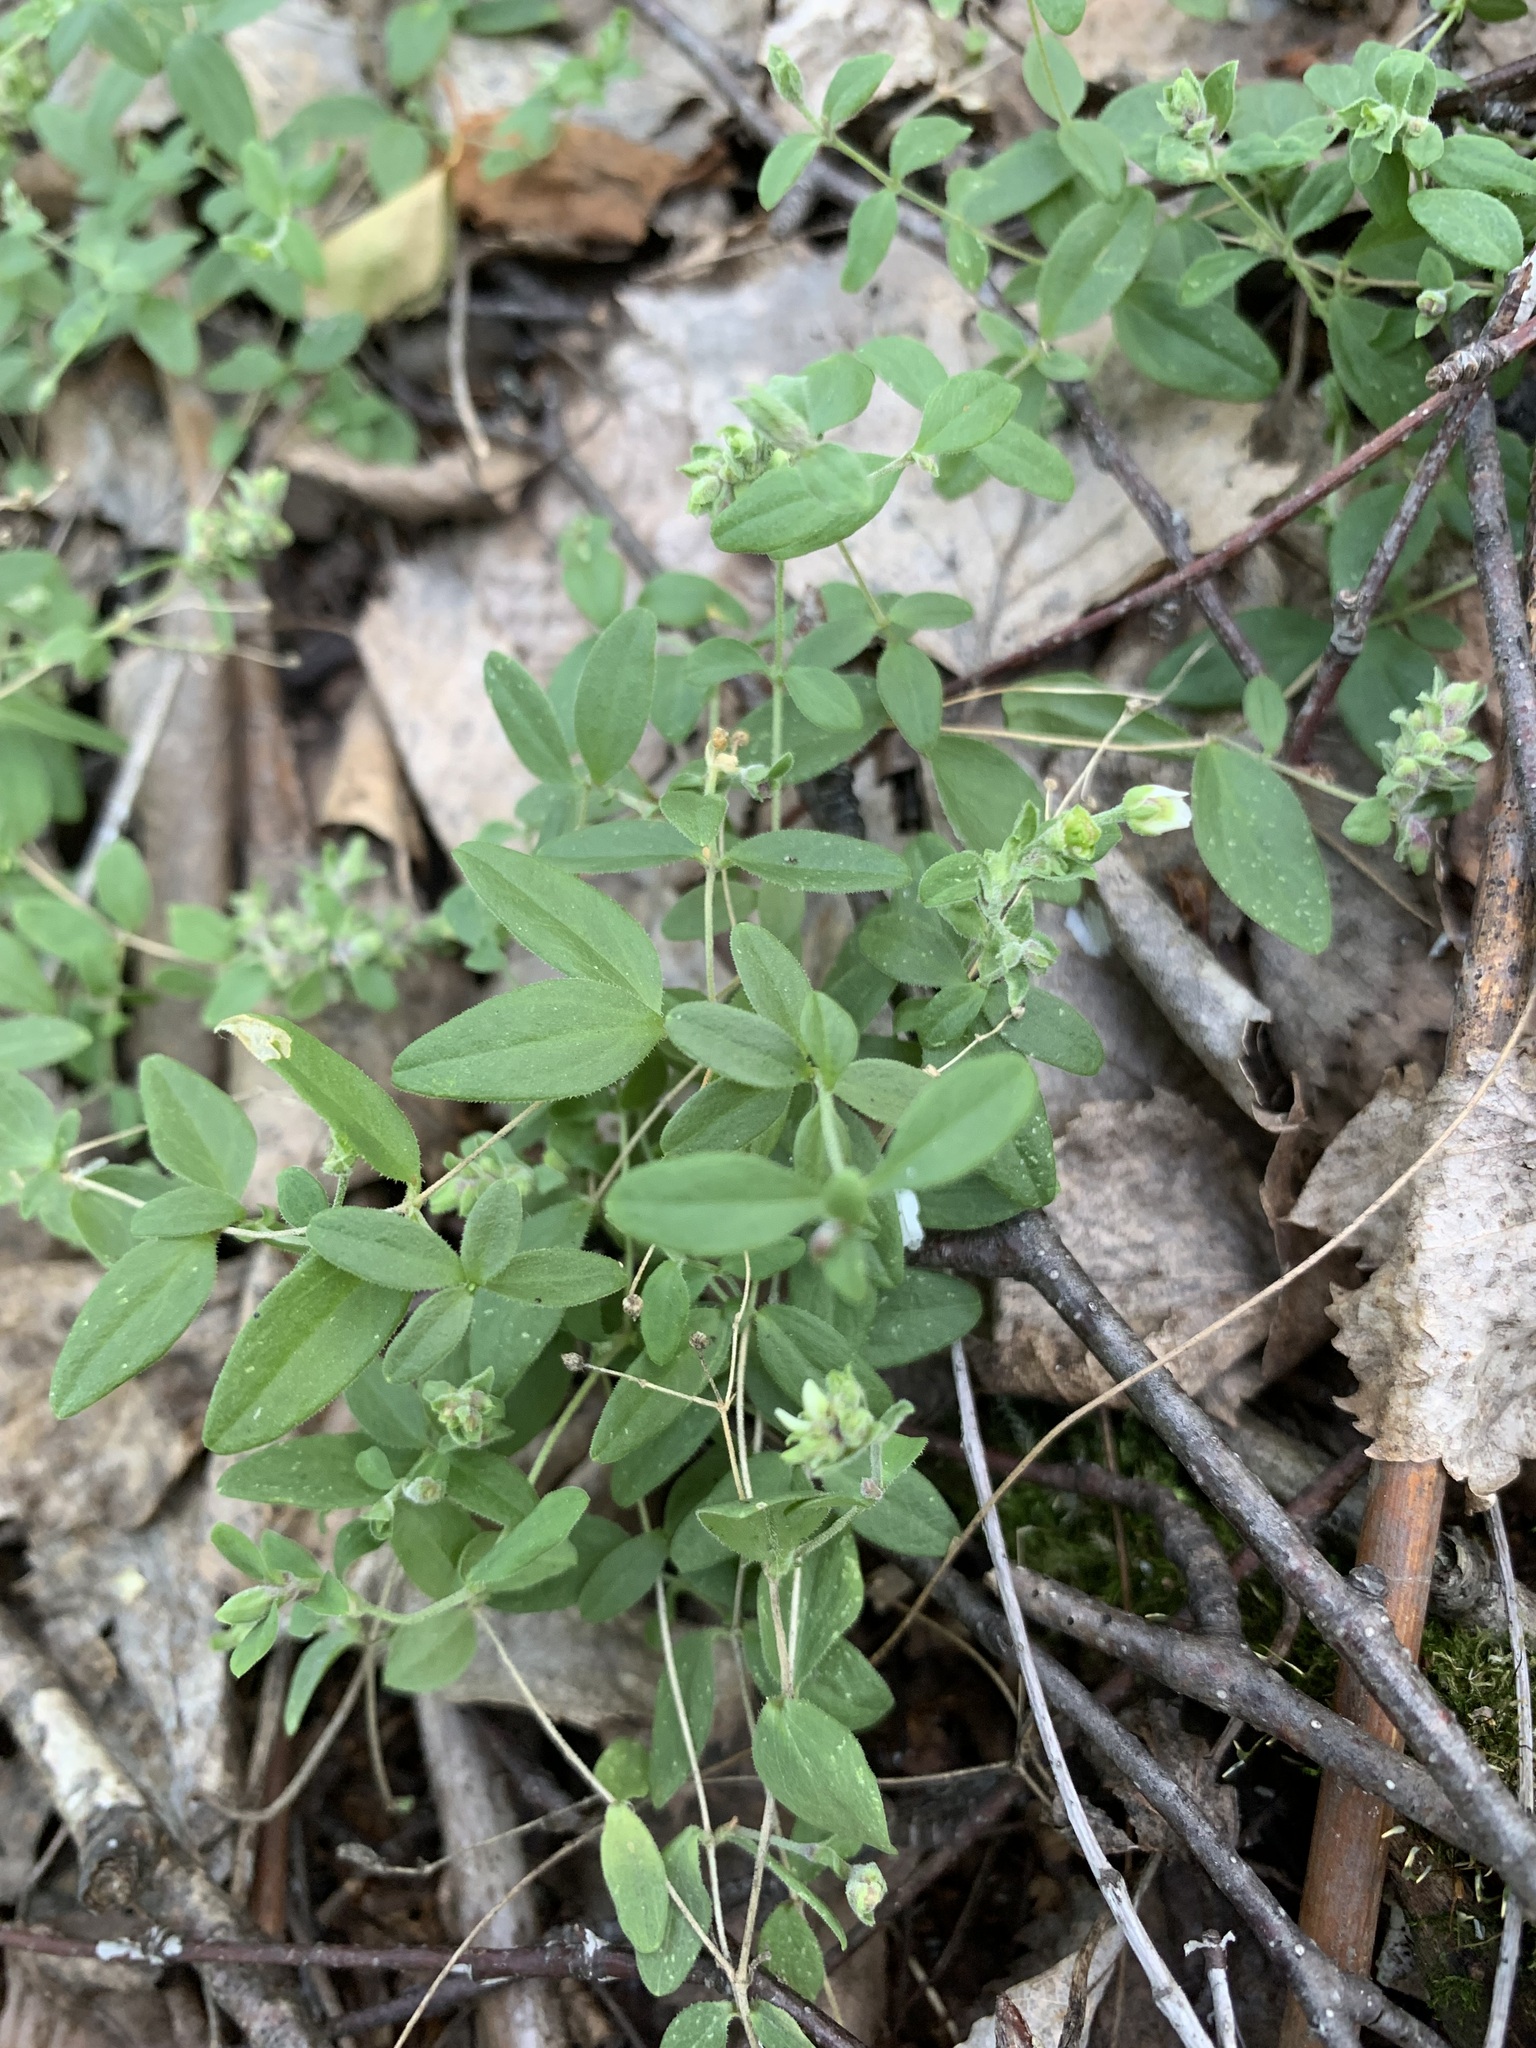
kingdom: Plantae
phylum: Tracheophyta
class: Magnoliopsida
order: Caryophyllales
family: Caryophyllaceae
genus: Moehringia
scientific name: Moehringia lateriflora
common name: Blunt-leaved sandwort
